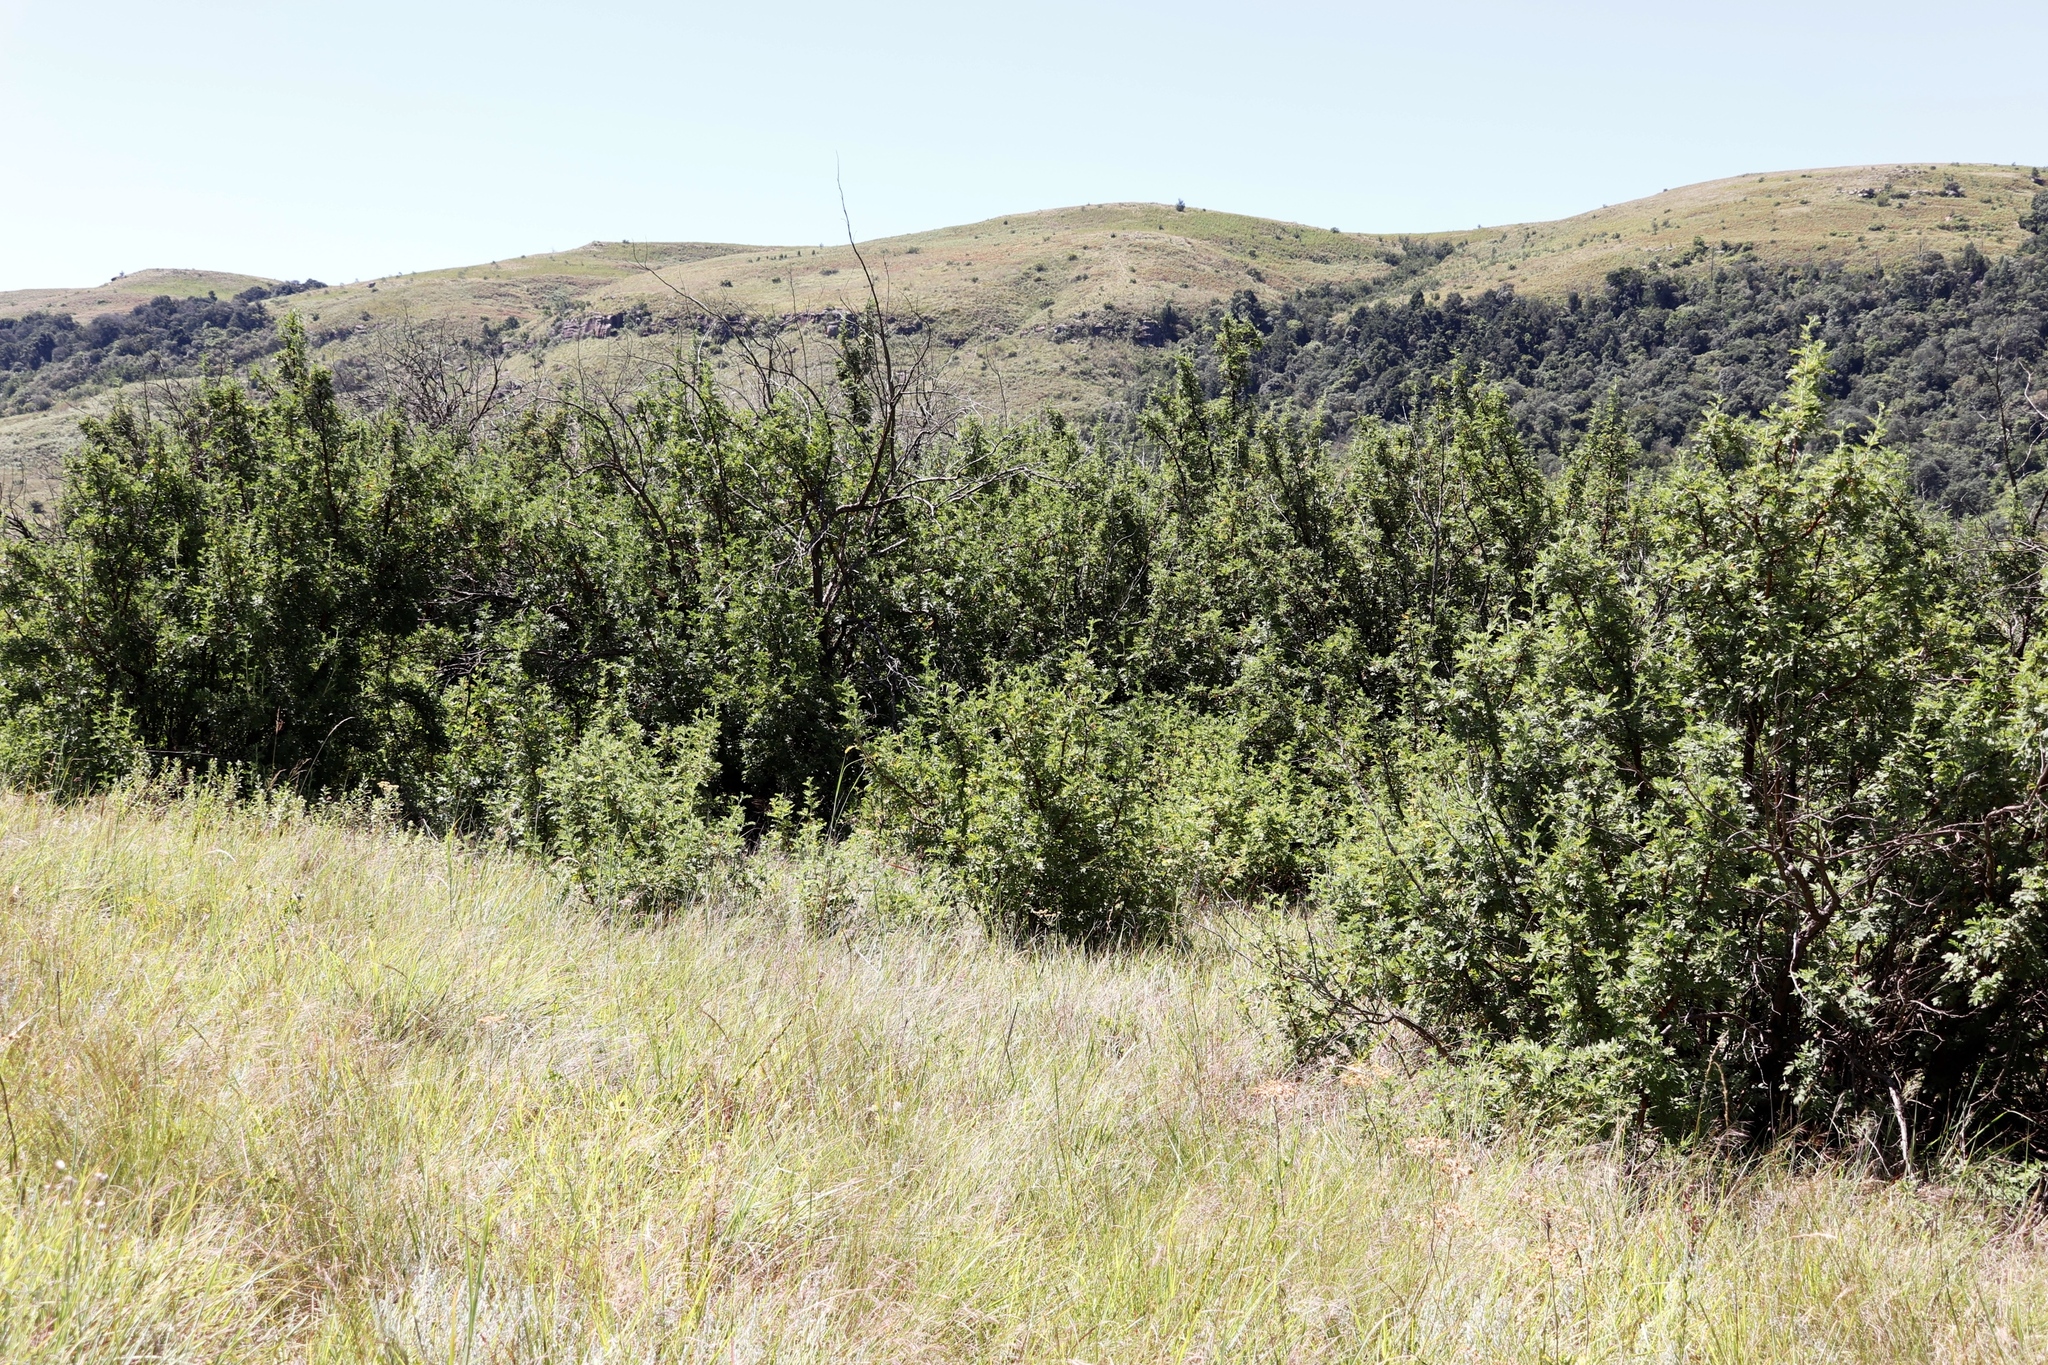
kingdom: Plantae
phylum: Tracheophyta
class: Magnoliopsida
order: Rosales
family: Rosaceae
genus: Leucosidea
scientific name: Leucosidea sericea
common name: Oldwood
